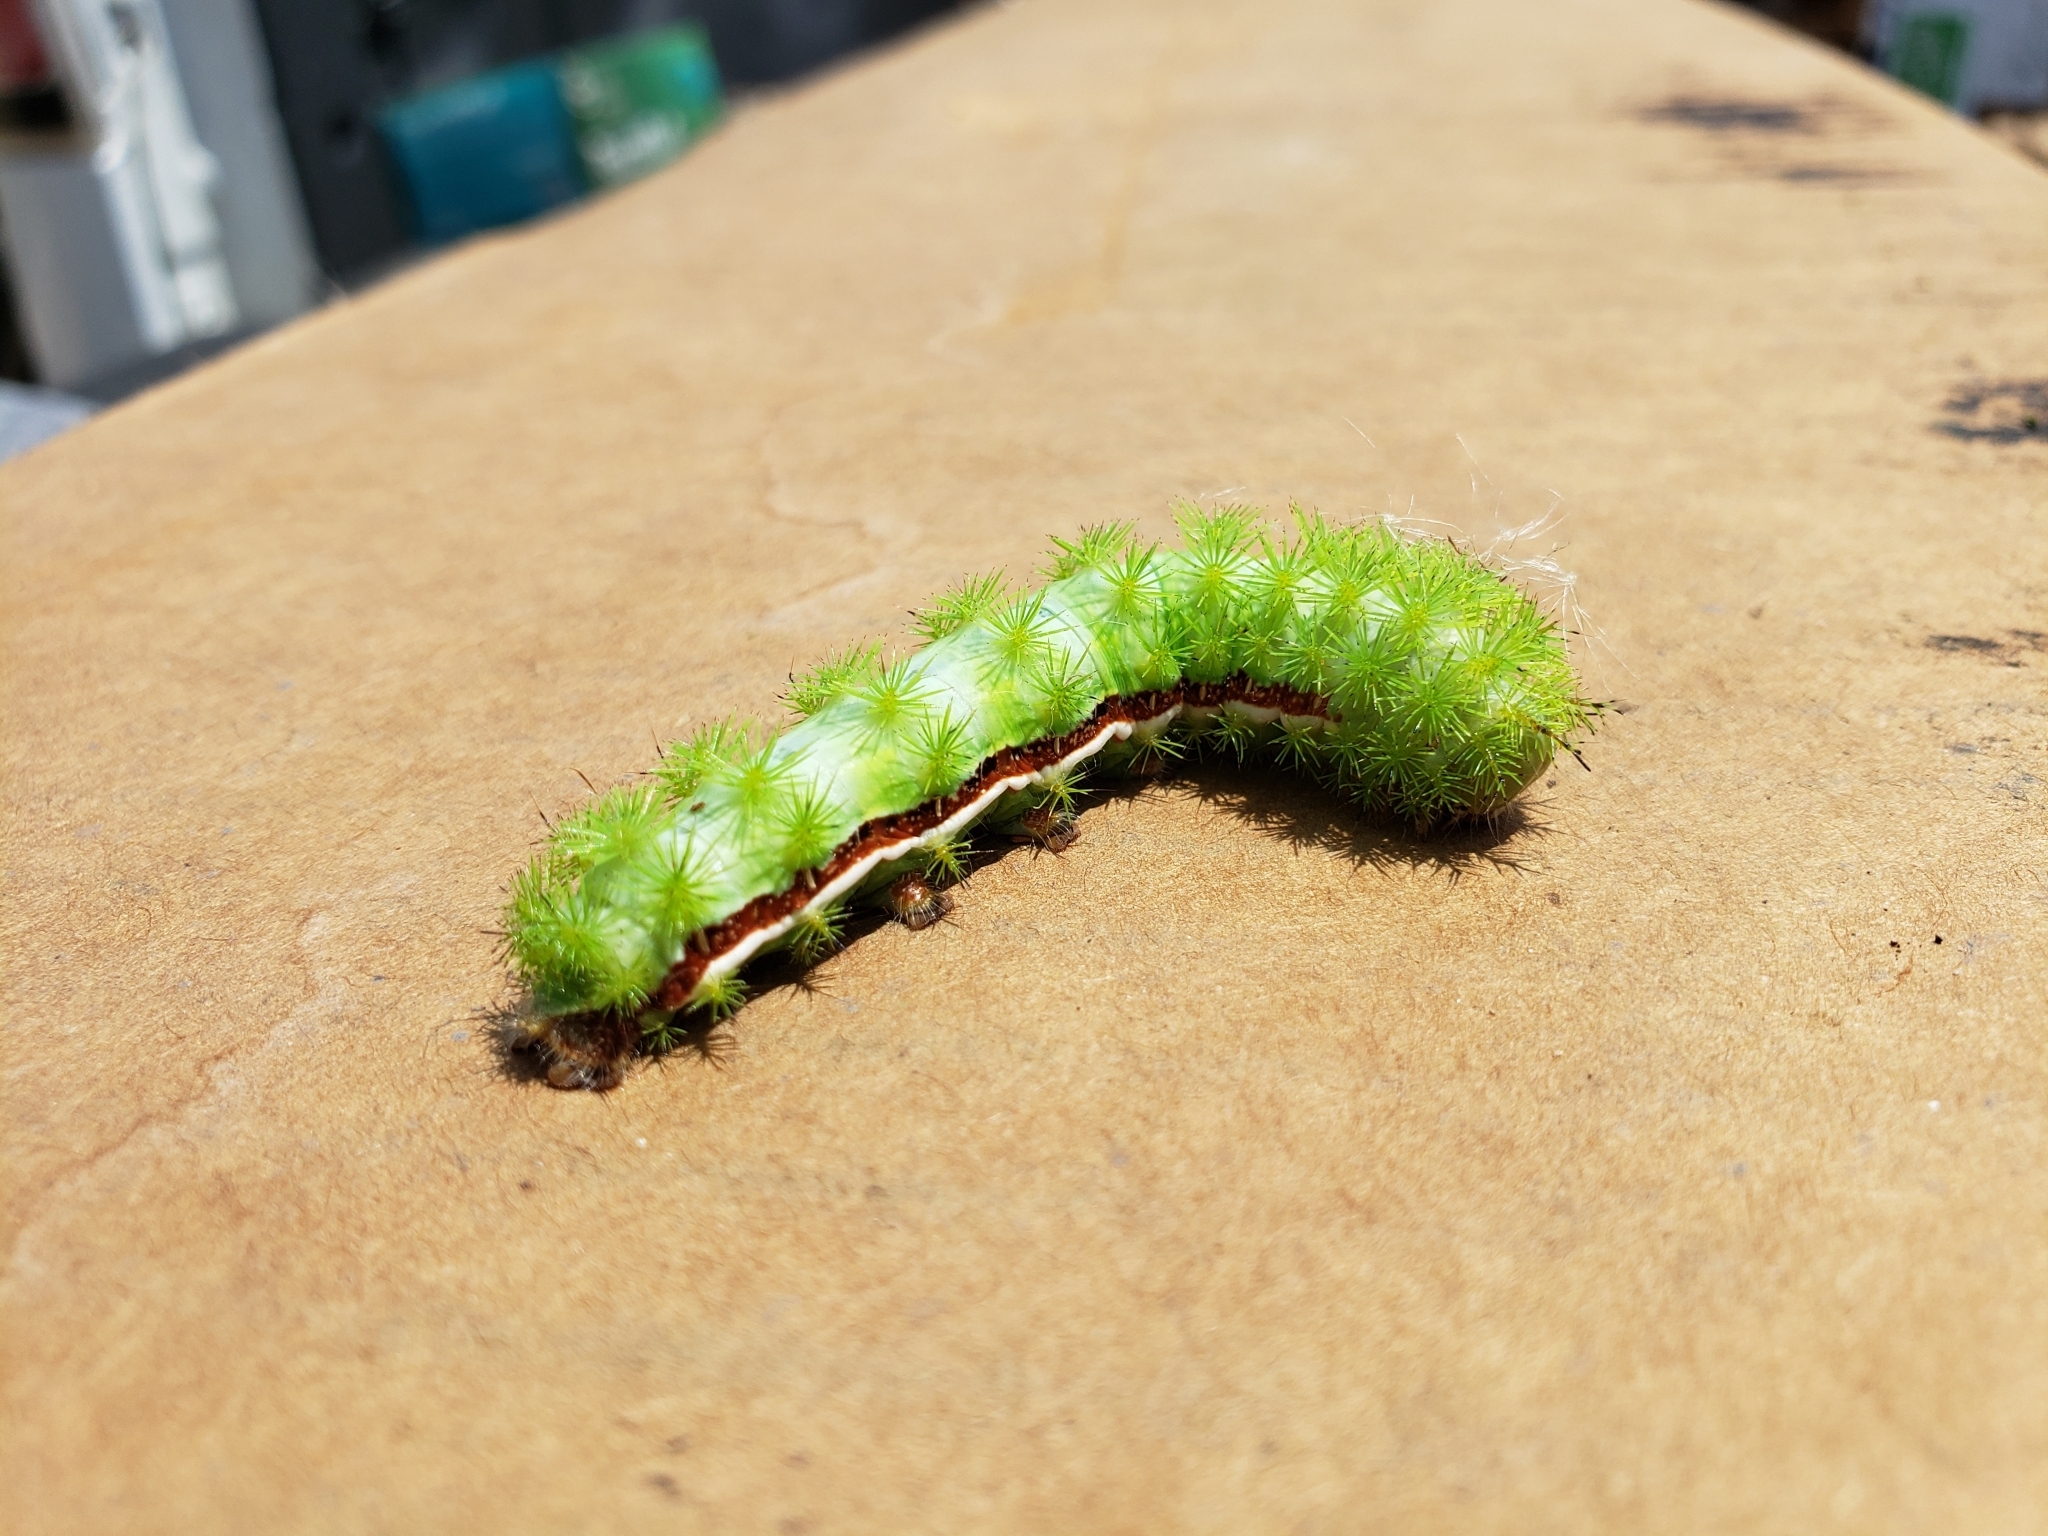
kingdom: Animalia
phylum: Arthropoda
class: Insecta
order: Lepidoptera
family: Saturniidae
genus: Automeris
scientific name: Automeris io
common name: Io moth
